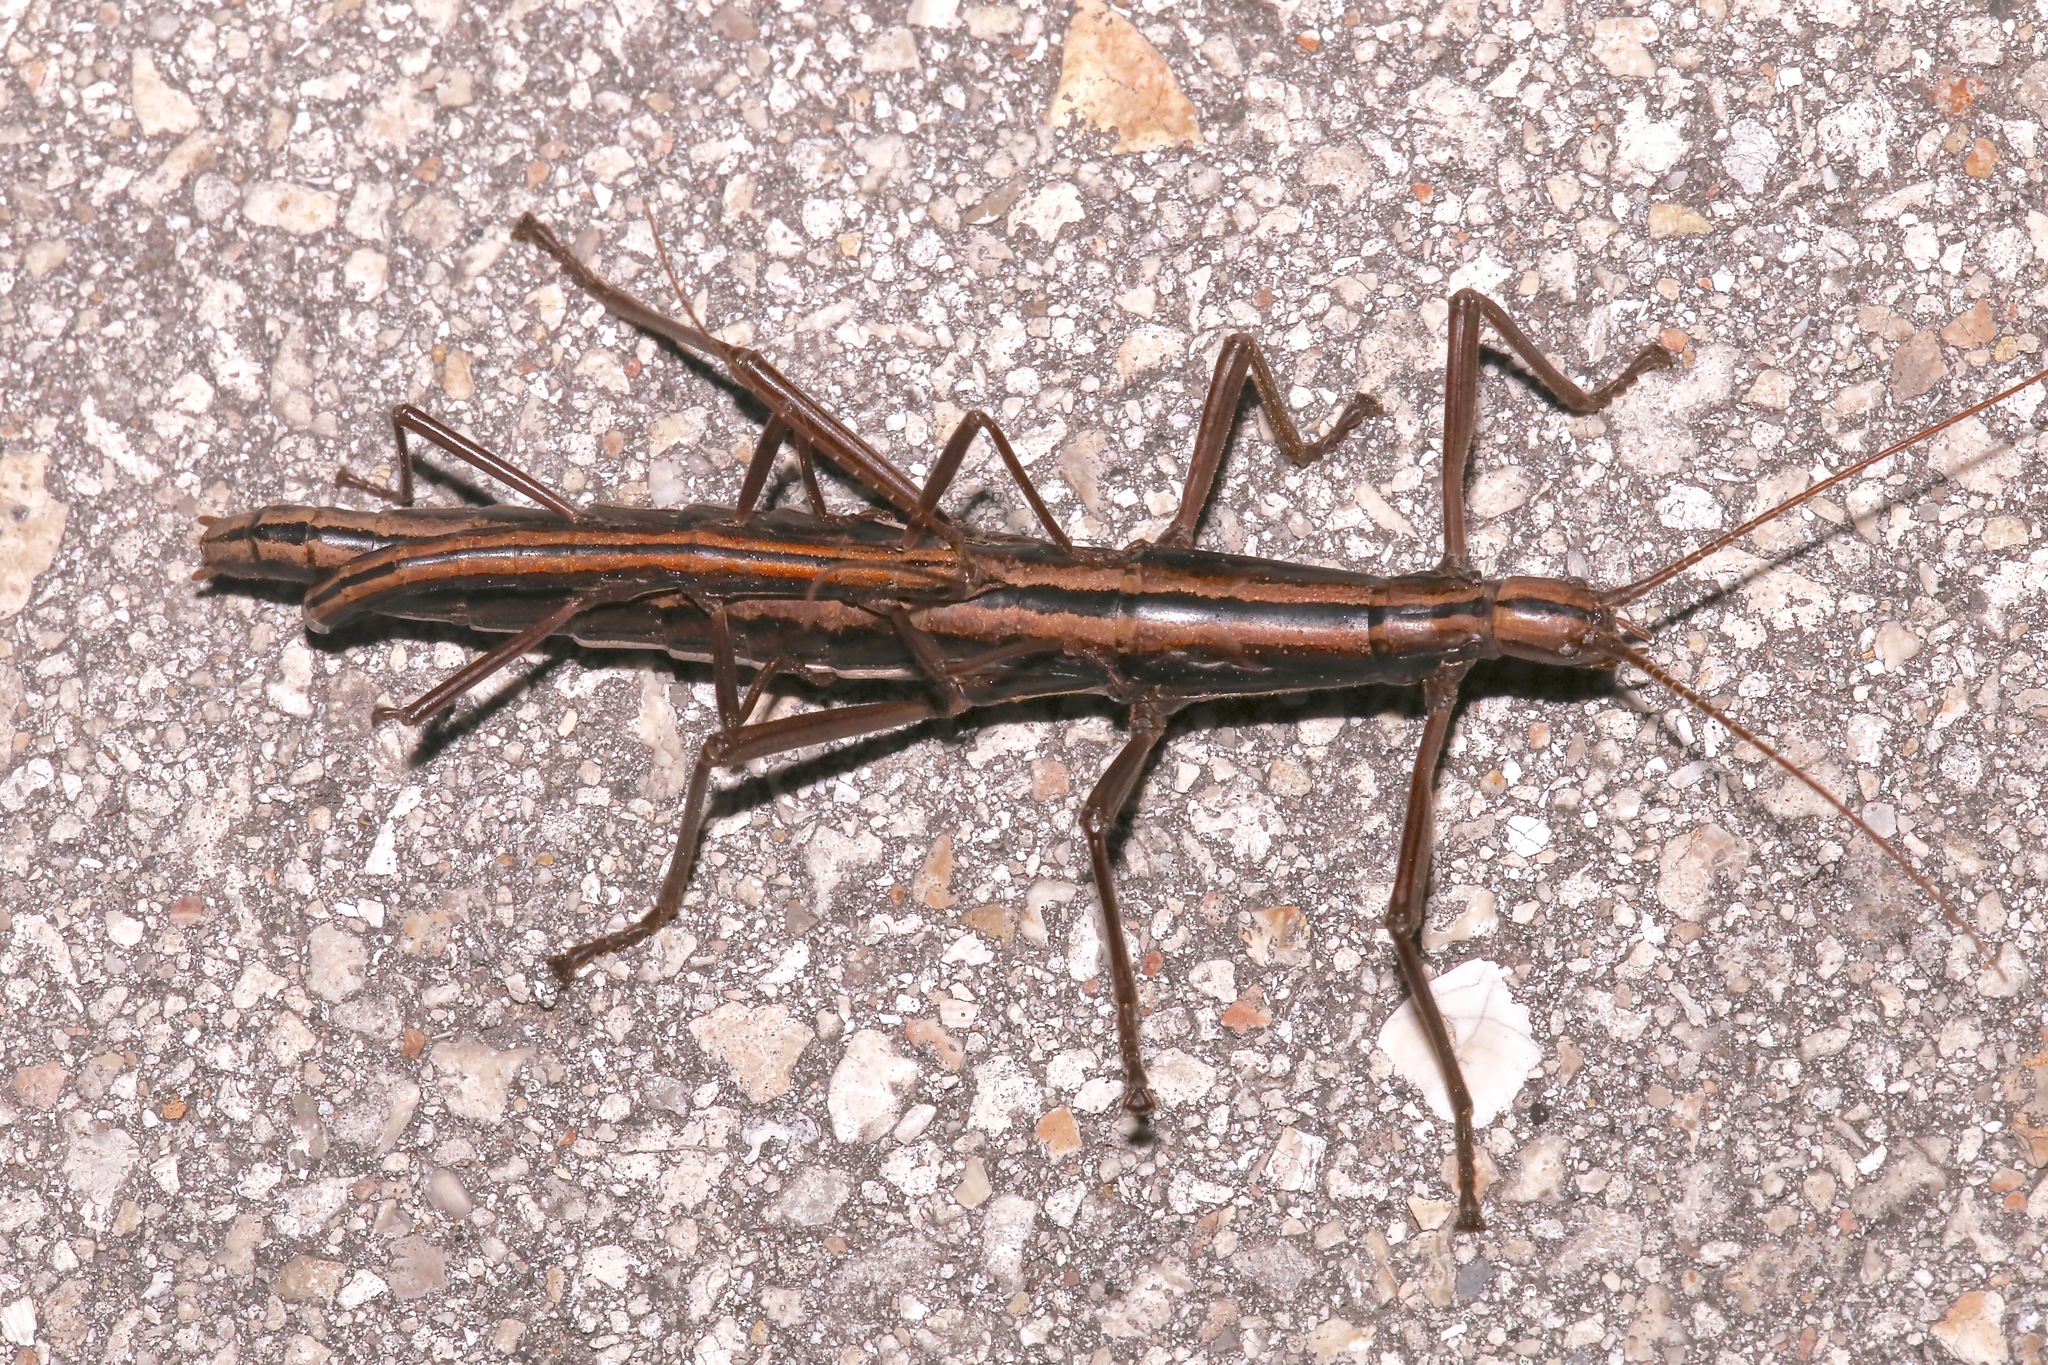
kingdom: Animalia
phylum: Arthropoda
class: Insecta
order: Phasmida
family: Pseudophasmatidae
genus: Anisomorpha
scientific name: Anisomorpha buprestoides
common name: Florida stick insect
